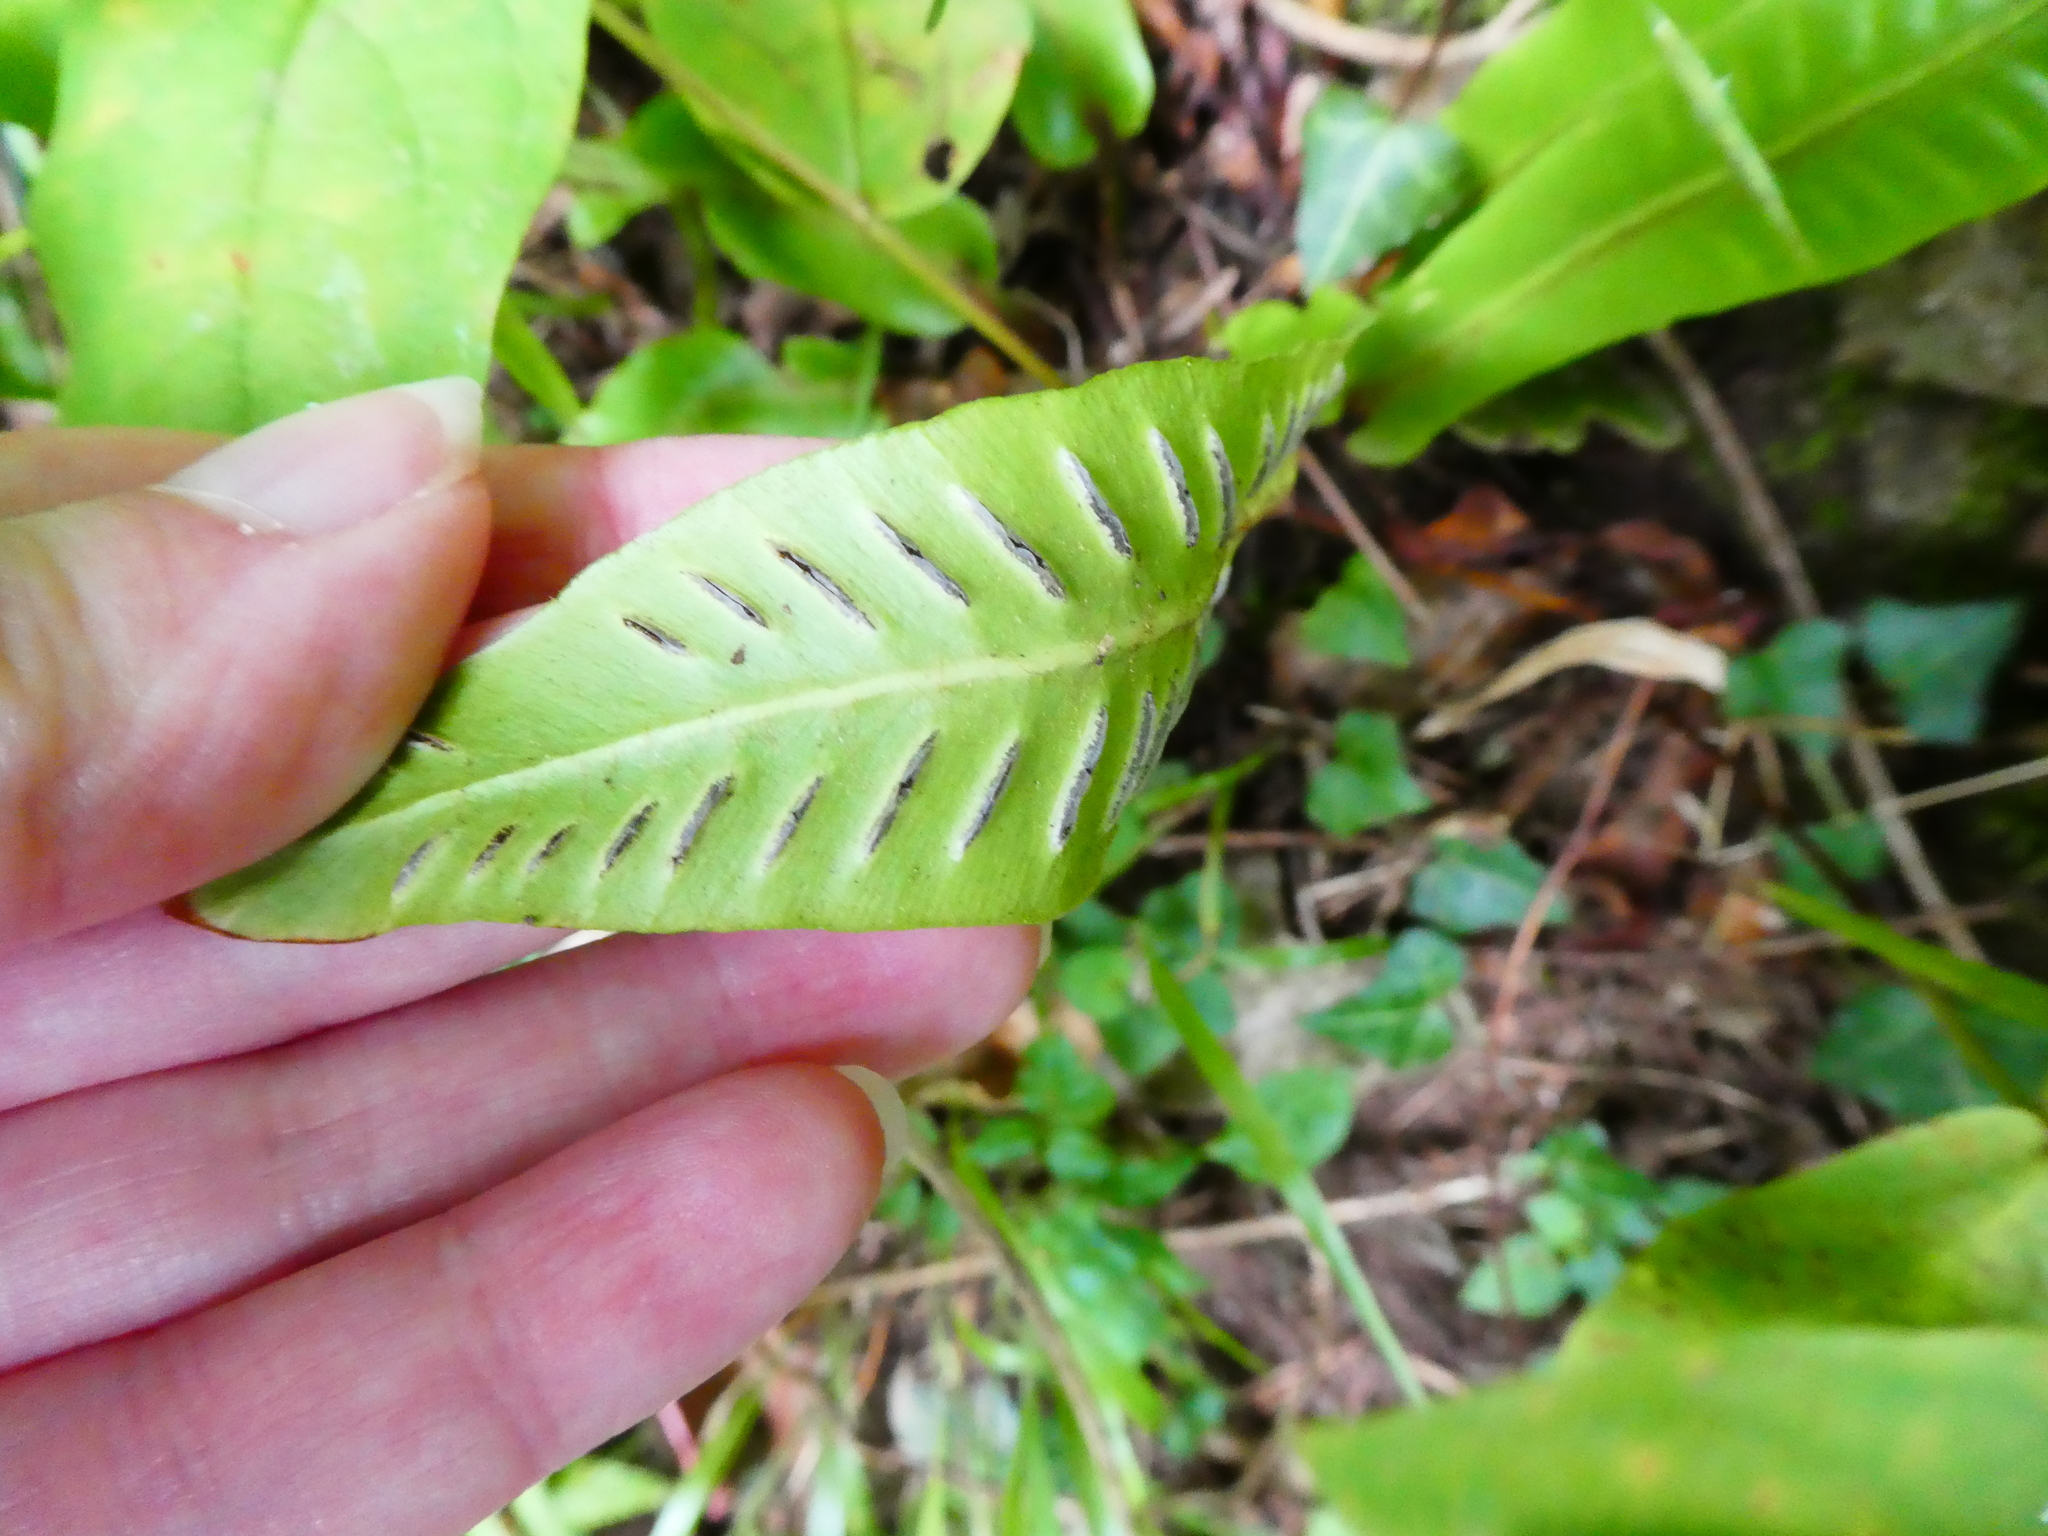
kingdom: Plantae
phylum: Tracheophyta
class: Polypodiopsida
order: Polypodiales
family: Aspleniaceae
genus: Asplenium
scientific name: Asplenium scolopendrium
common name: Hart's-tongue fern
